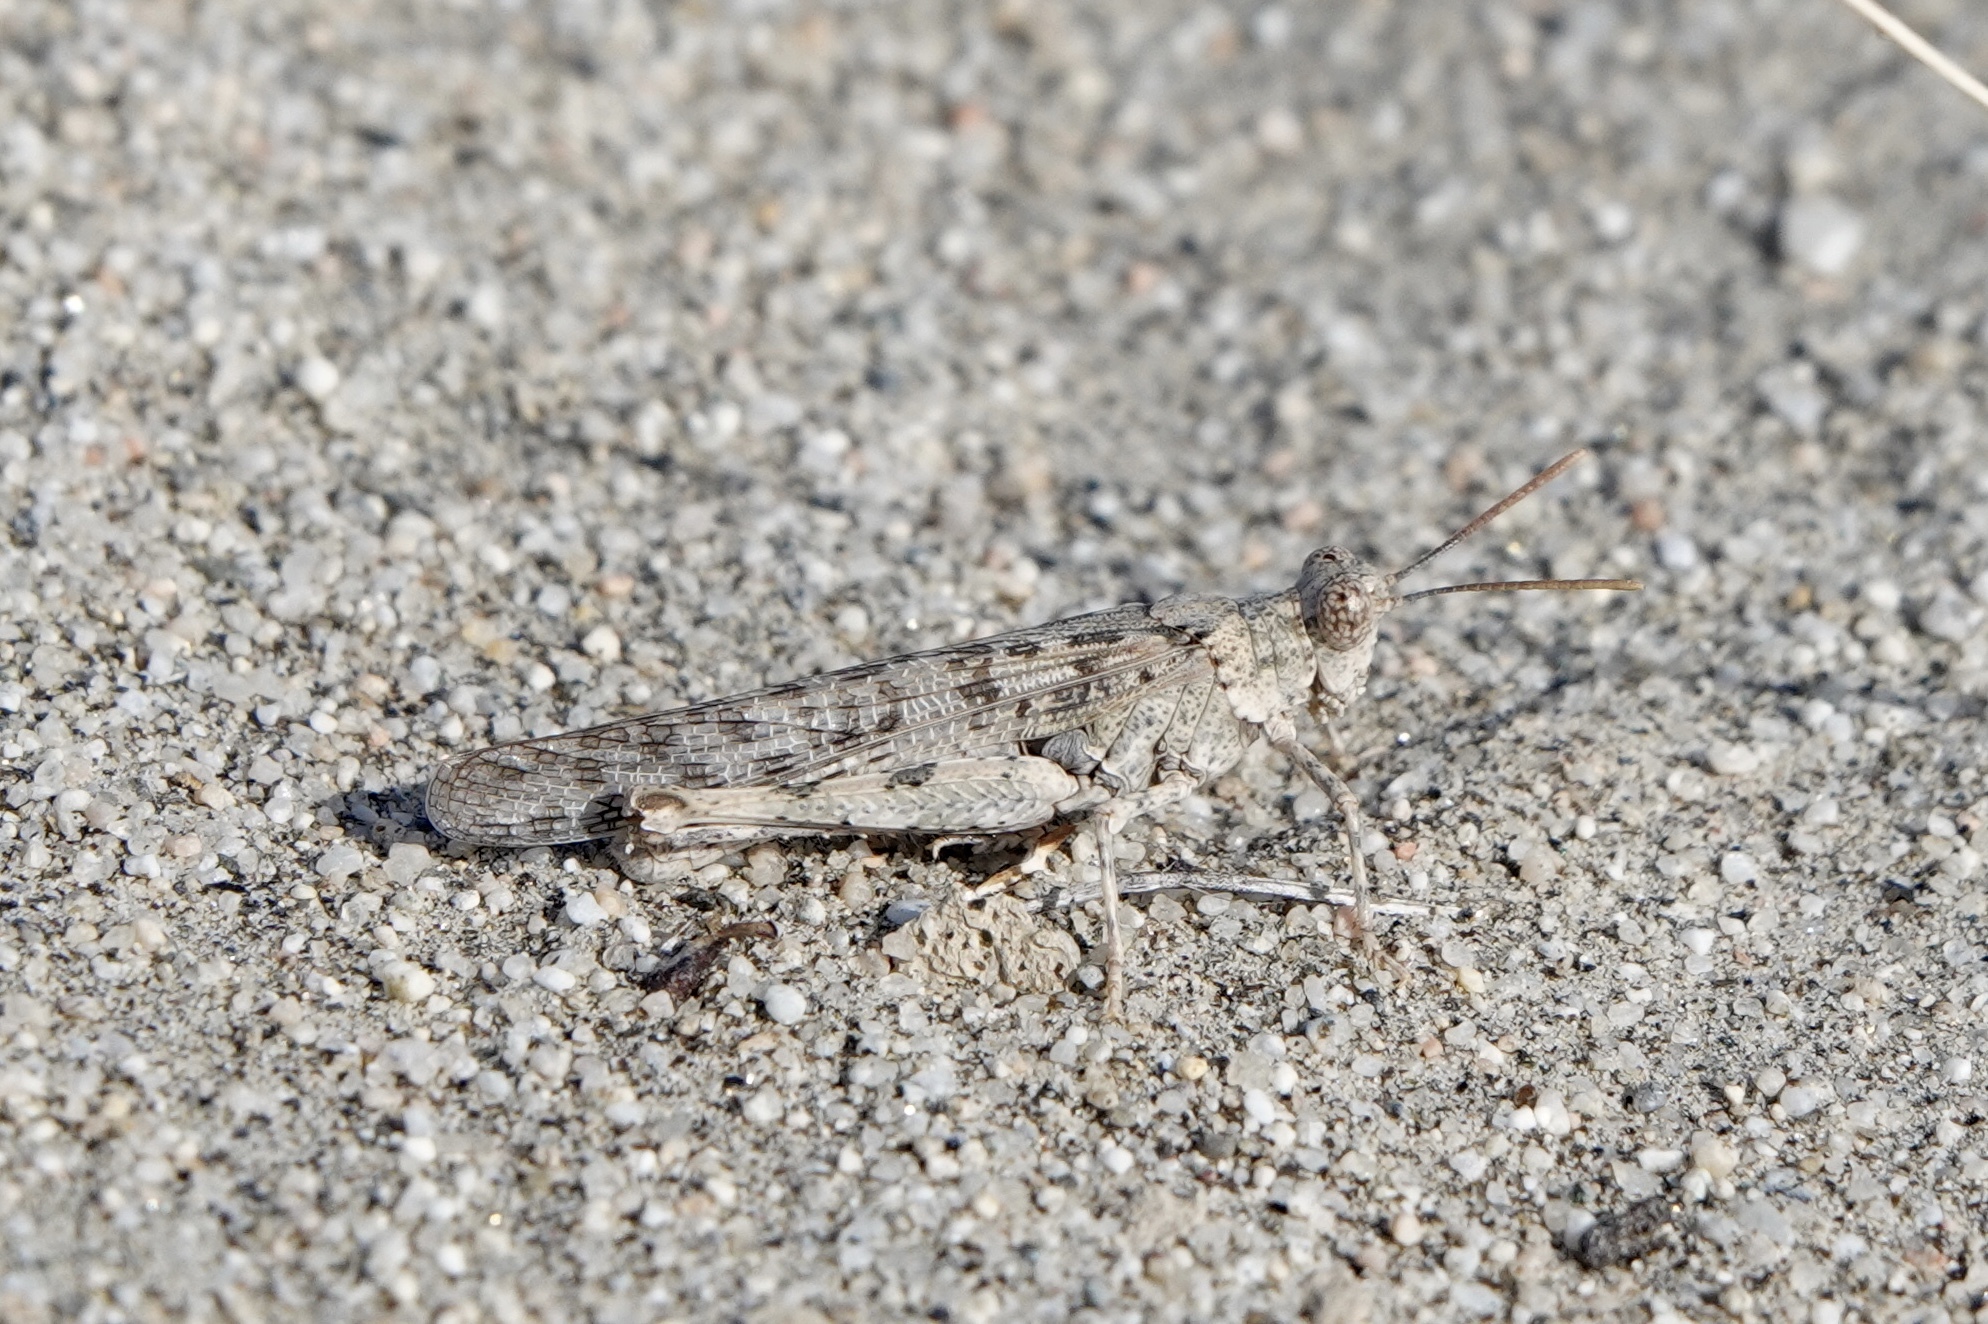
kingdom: Animalia
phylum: Arthropoda
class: Insecta
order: Orthoptera
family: Acrididae
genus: Anconia
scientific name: Anconia integra
